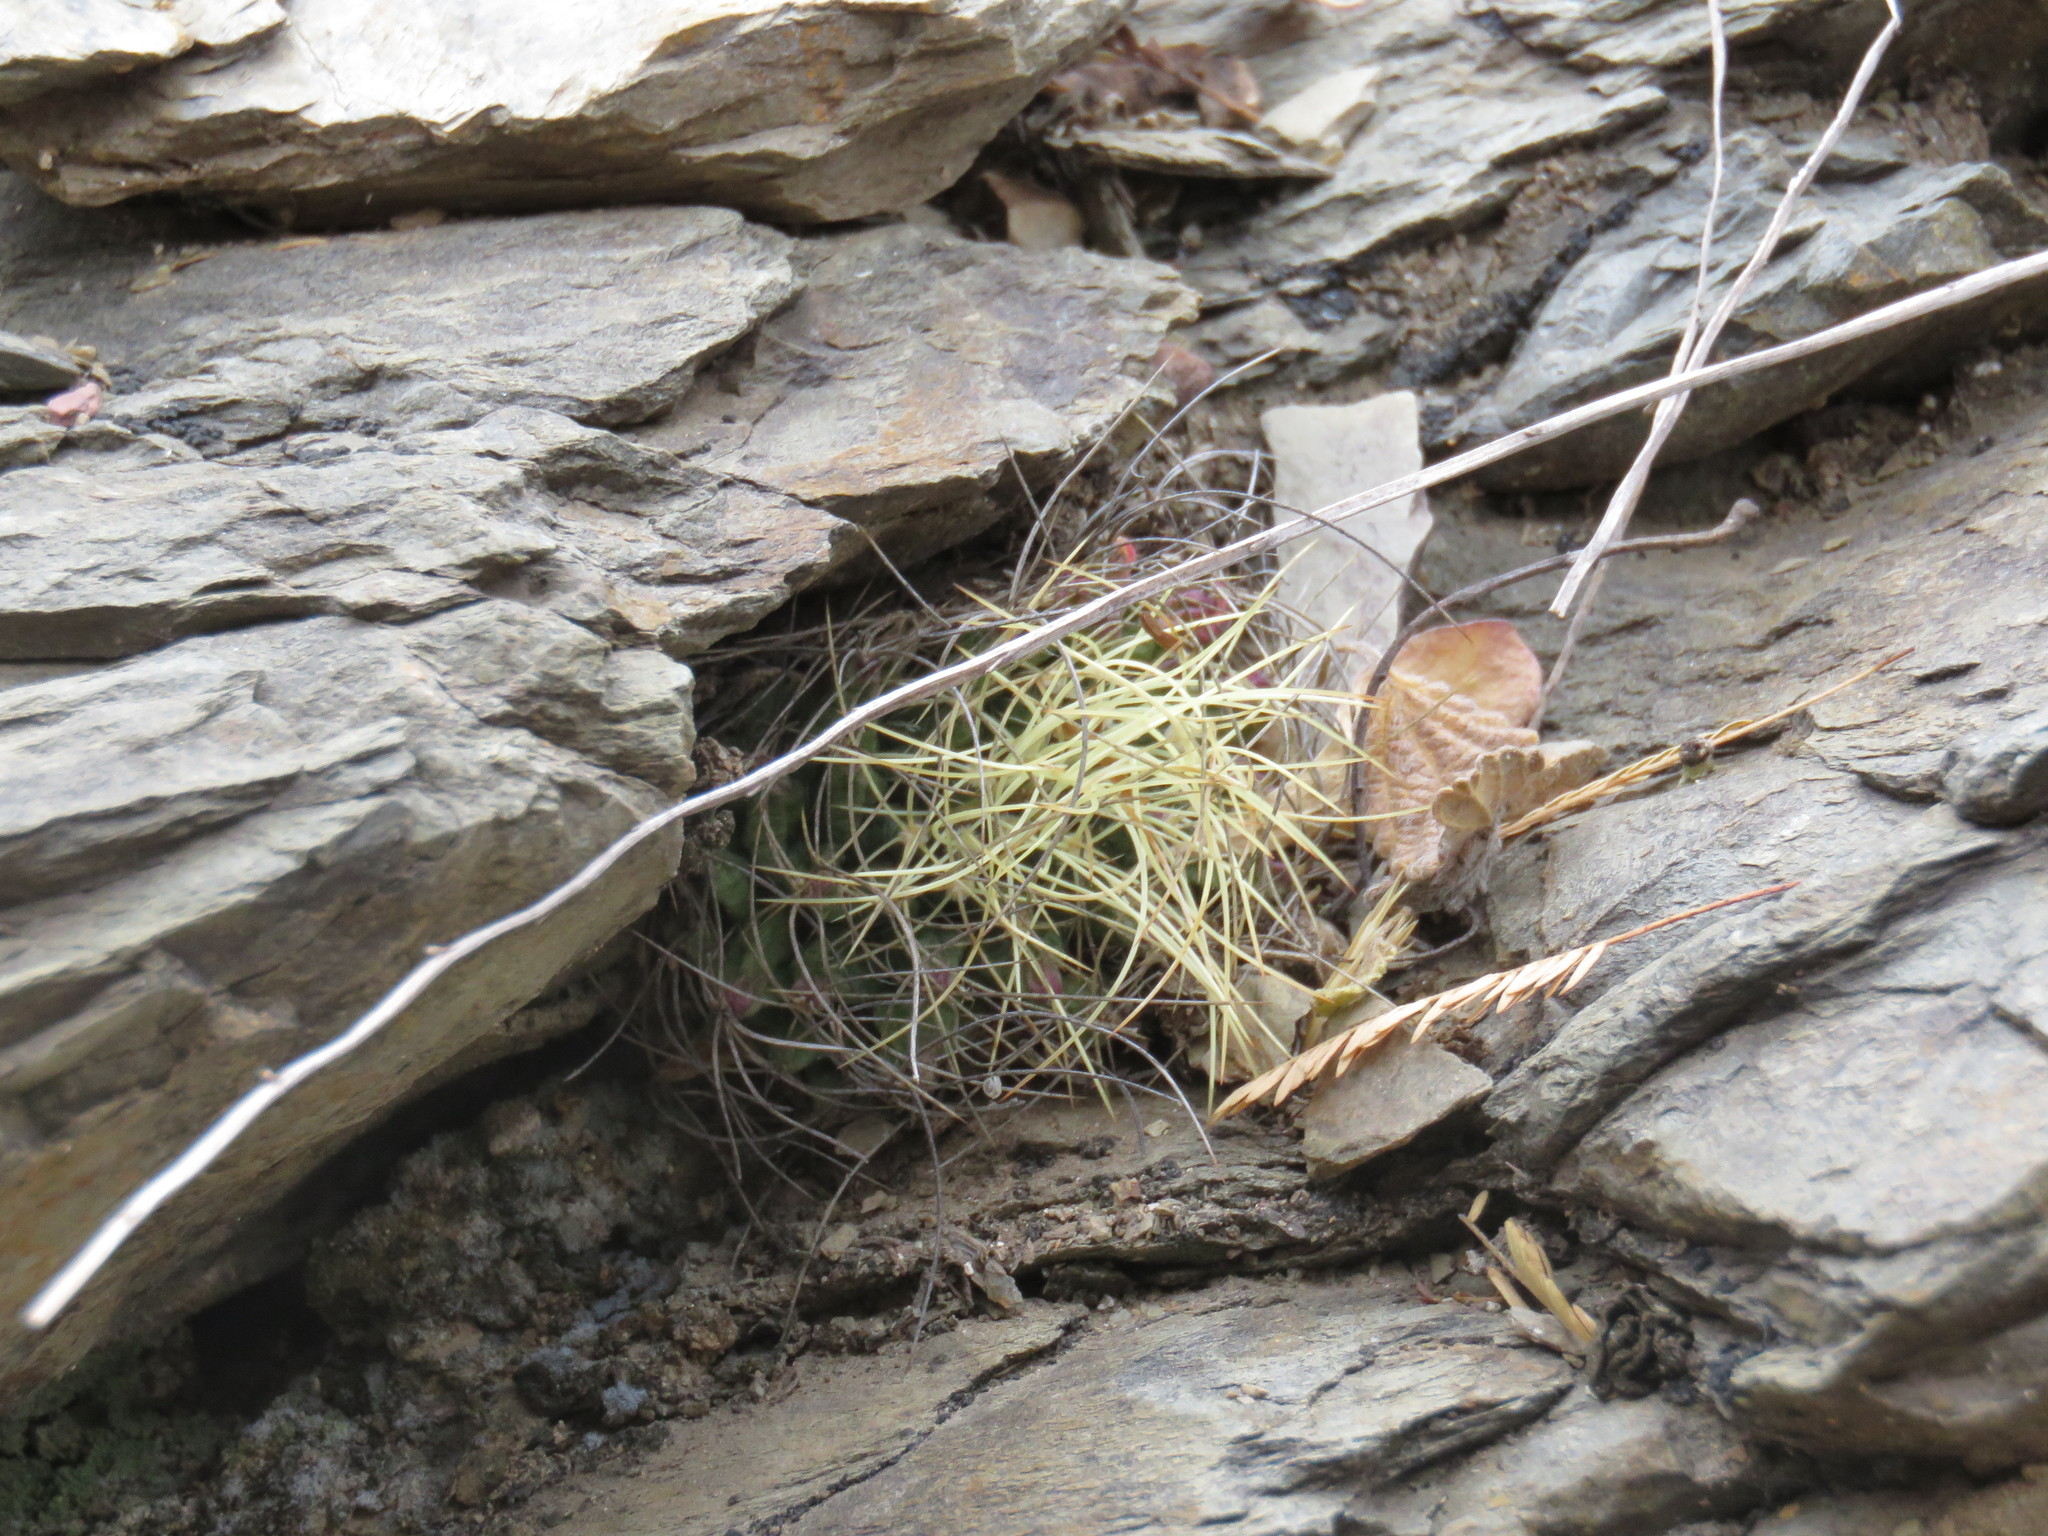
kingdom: Plantae
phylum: Tracheophyta
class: Magnoliopsida
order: Caryophyllales
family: Cactaceae
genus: Mammillaria
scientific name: Mammillaria decipiens
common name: Bird's-nest pincushion
